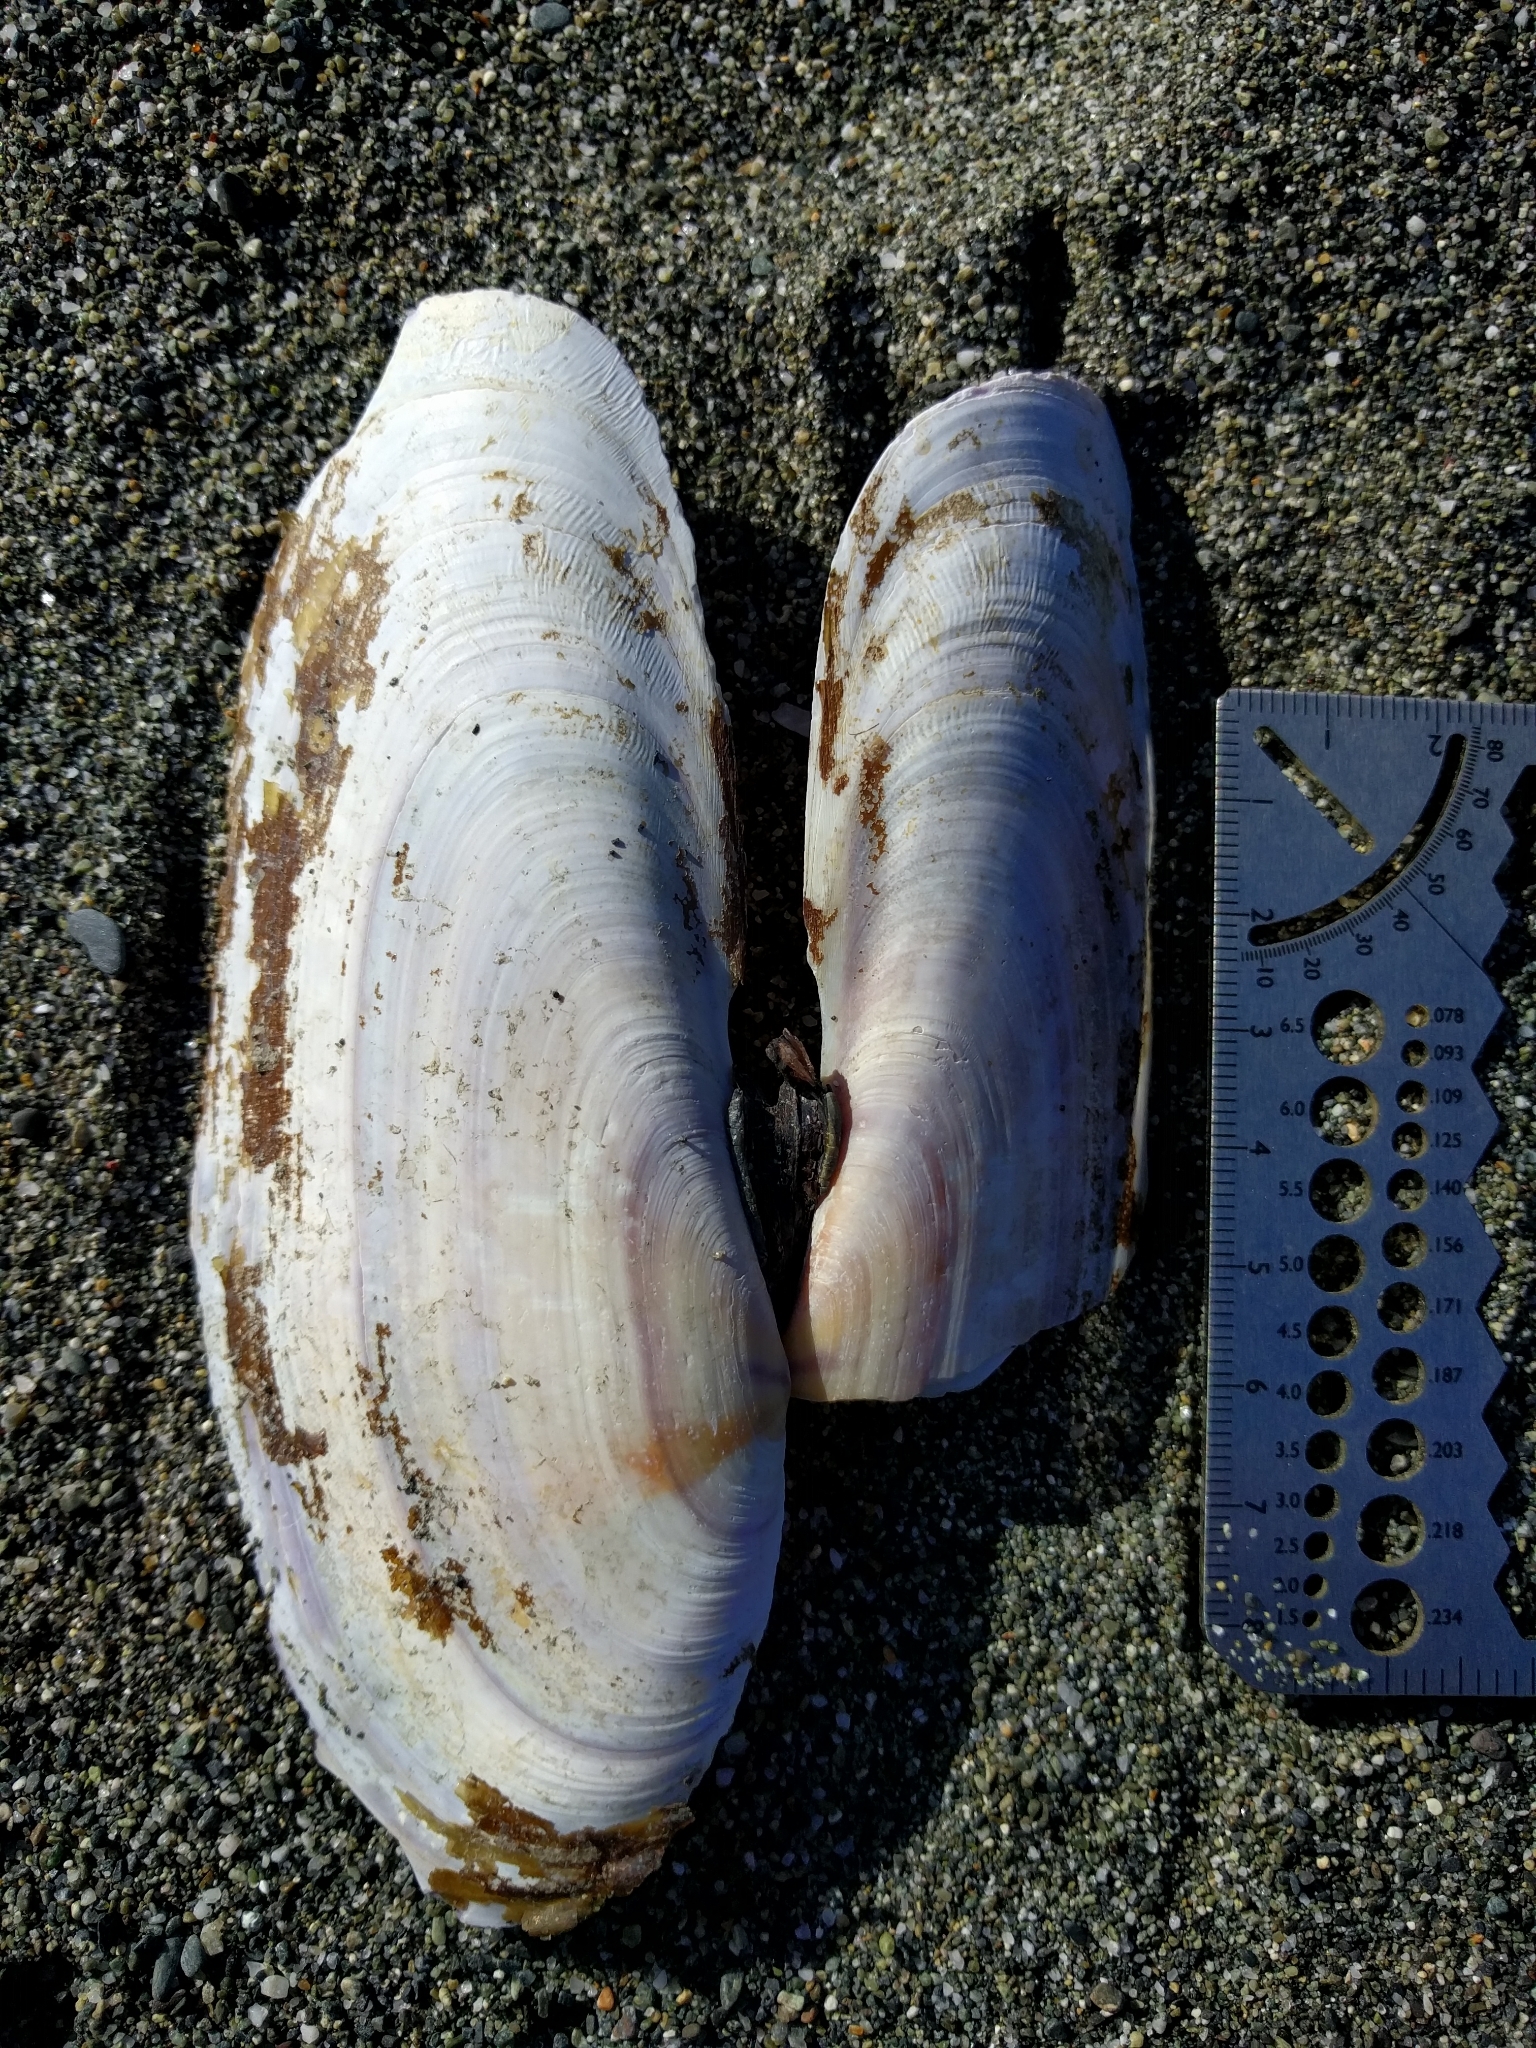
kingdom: Animalia
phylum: Mollusca
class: Bivalvia
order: Adapedonta
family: Pharidae
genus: Siliqua
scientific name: Siliqua patula
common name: Pacific razor clam
